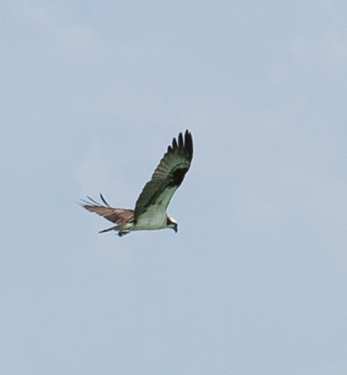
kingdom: Animalia
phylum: Chordata
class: Aves
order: Accipitriformes
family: Pandionidae
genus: Pandion
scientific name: Pandion haliaetus
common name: Osprey
